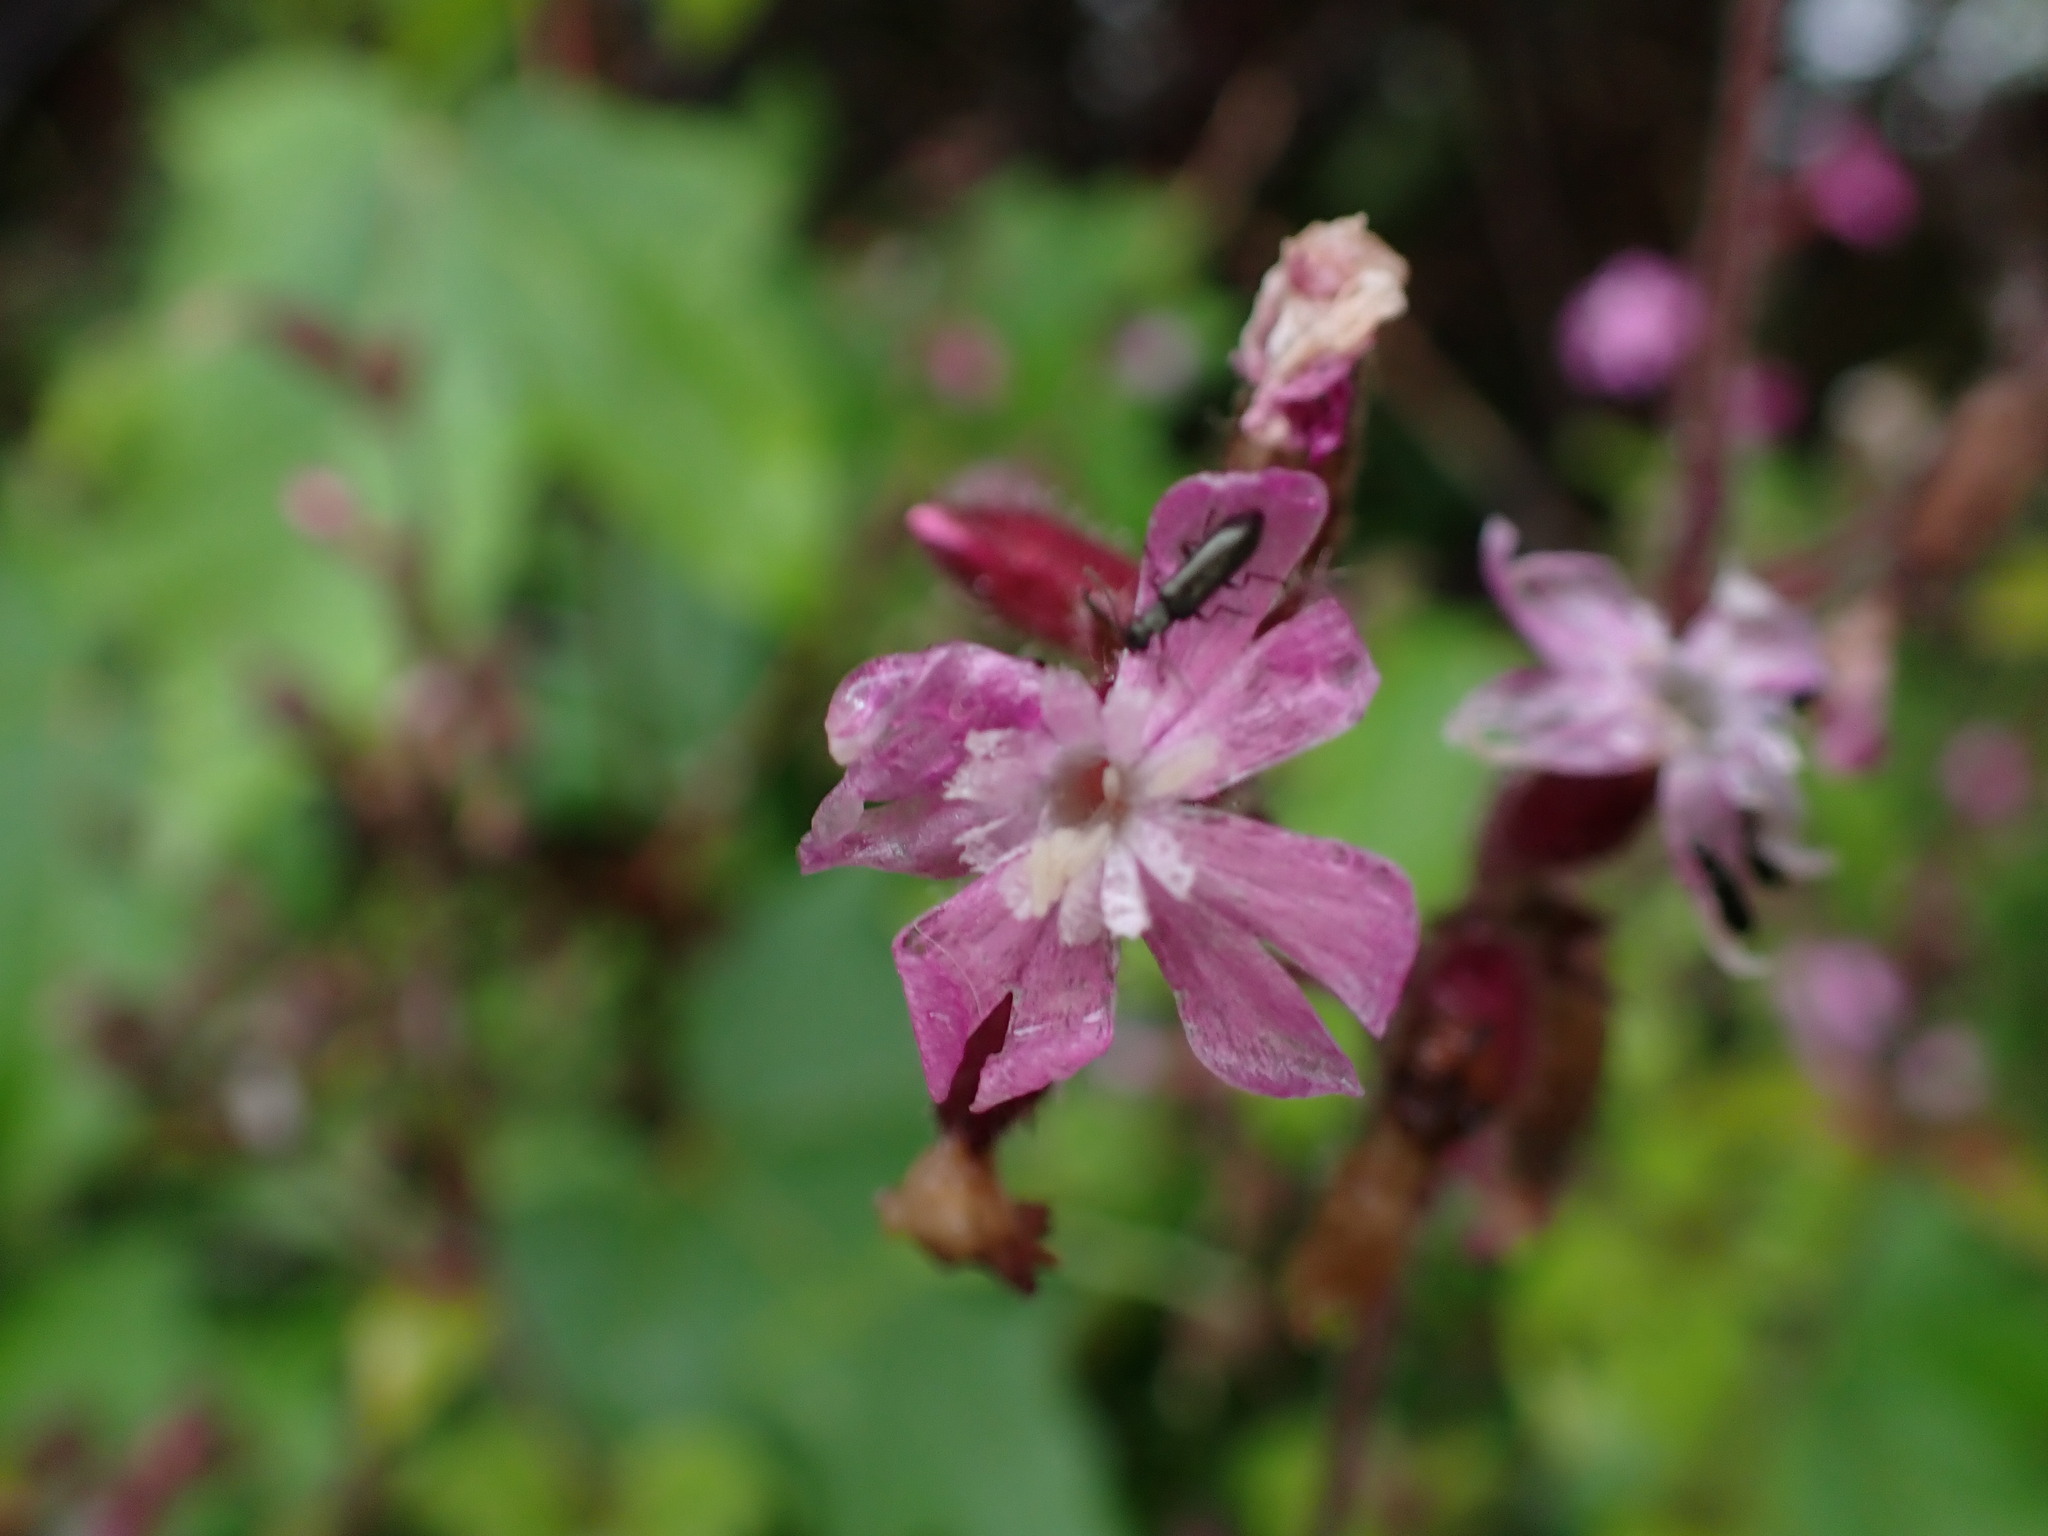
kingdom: Plantae
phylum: Tracheophyta
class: Magnoliopsida
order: Caryophyllales
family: Caryophyllaceae
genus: Silene
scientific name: Silene dioica
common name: Red campion
